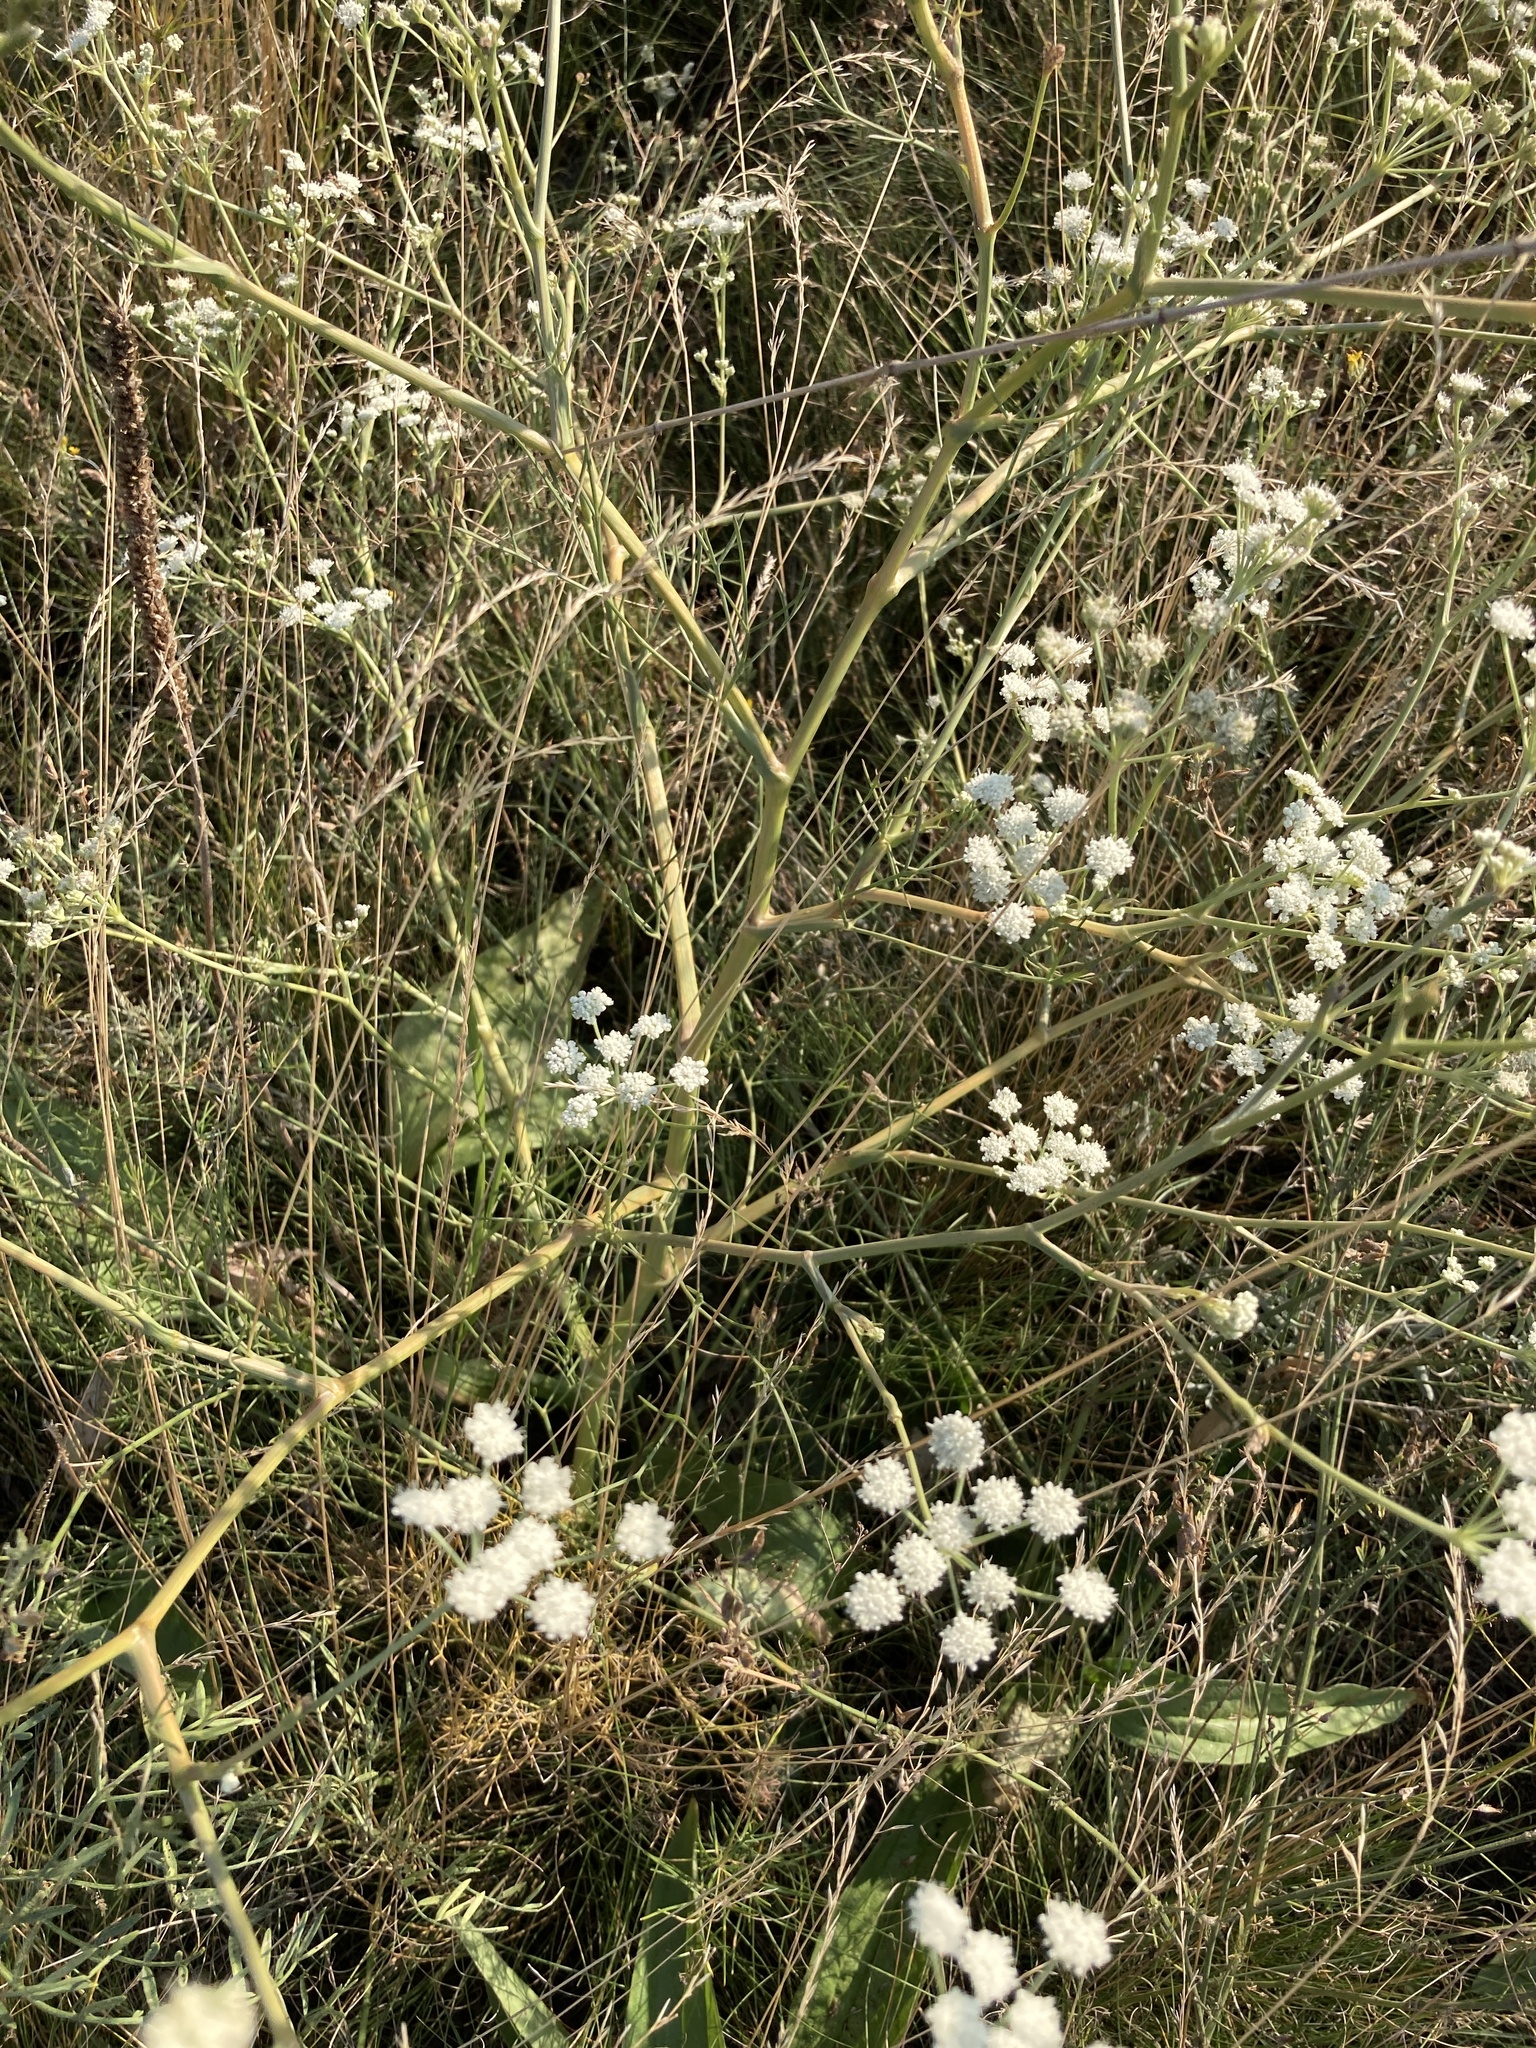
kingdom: Plantae
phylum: Tracheophyta
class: Magnoliopsida
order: Apiales
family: Apiaceae
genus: Seseli
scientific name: Seseli arenarium
